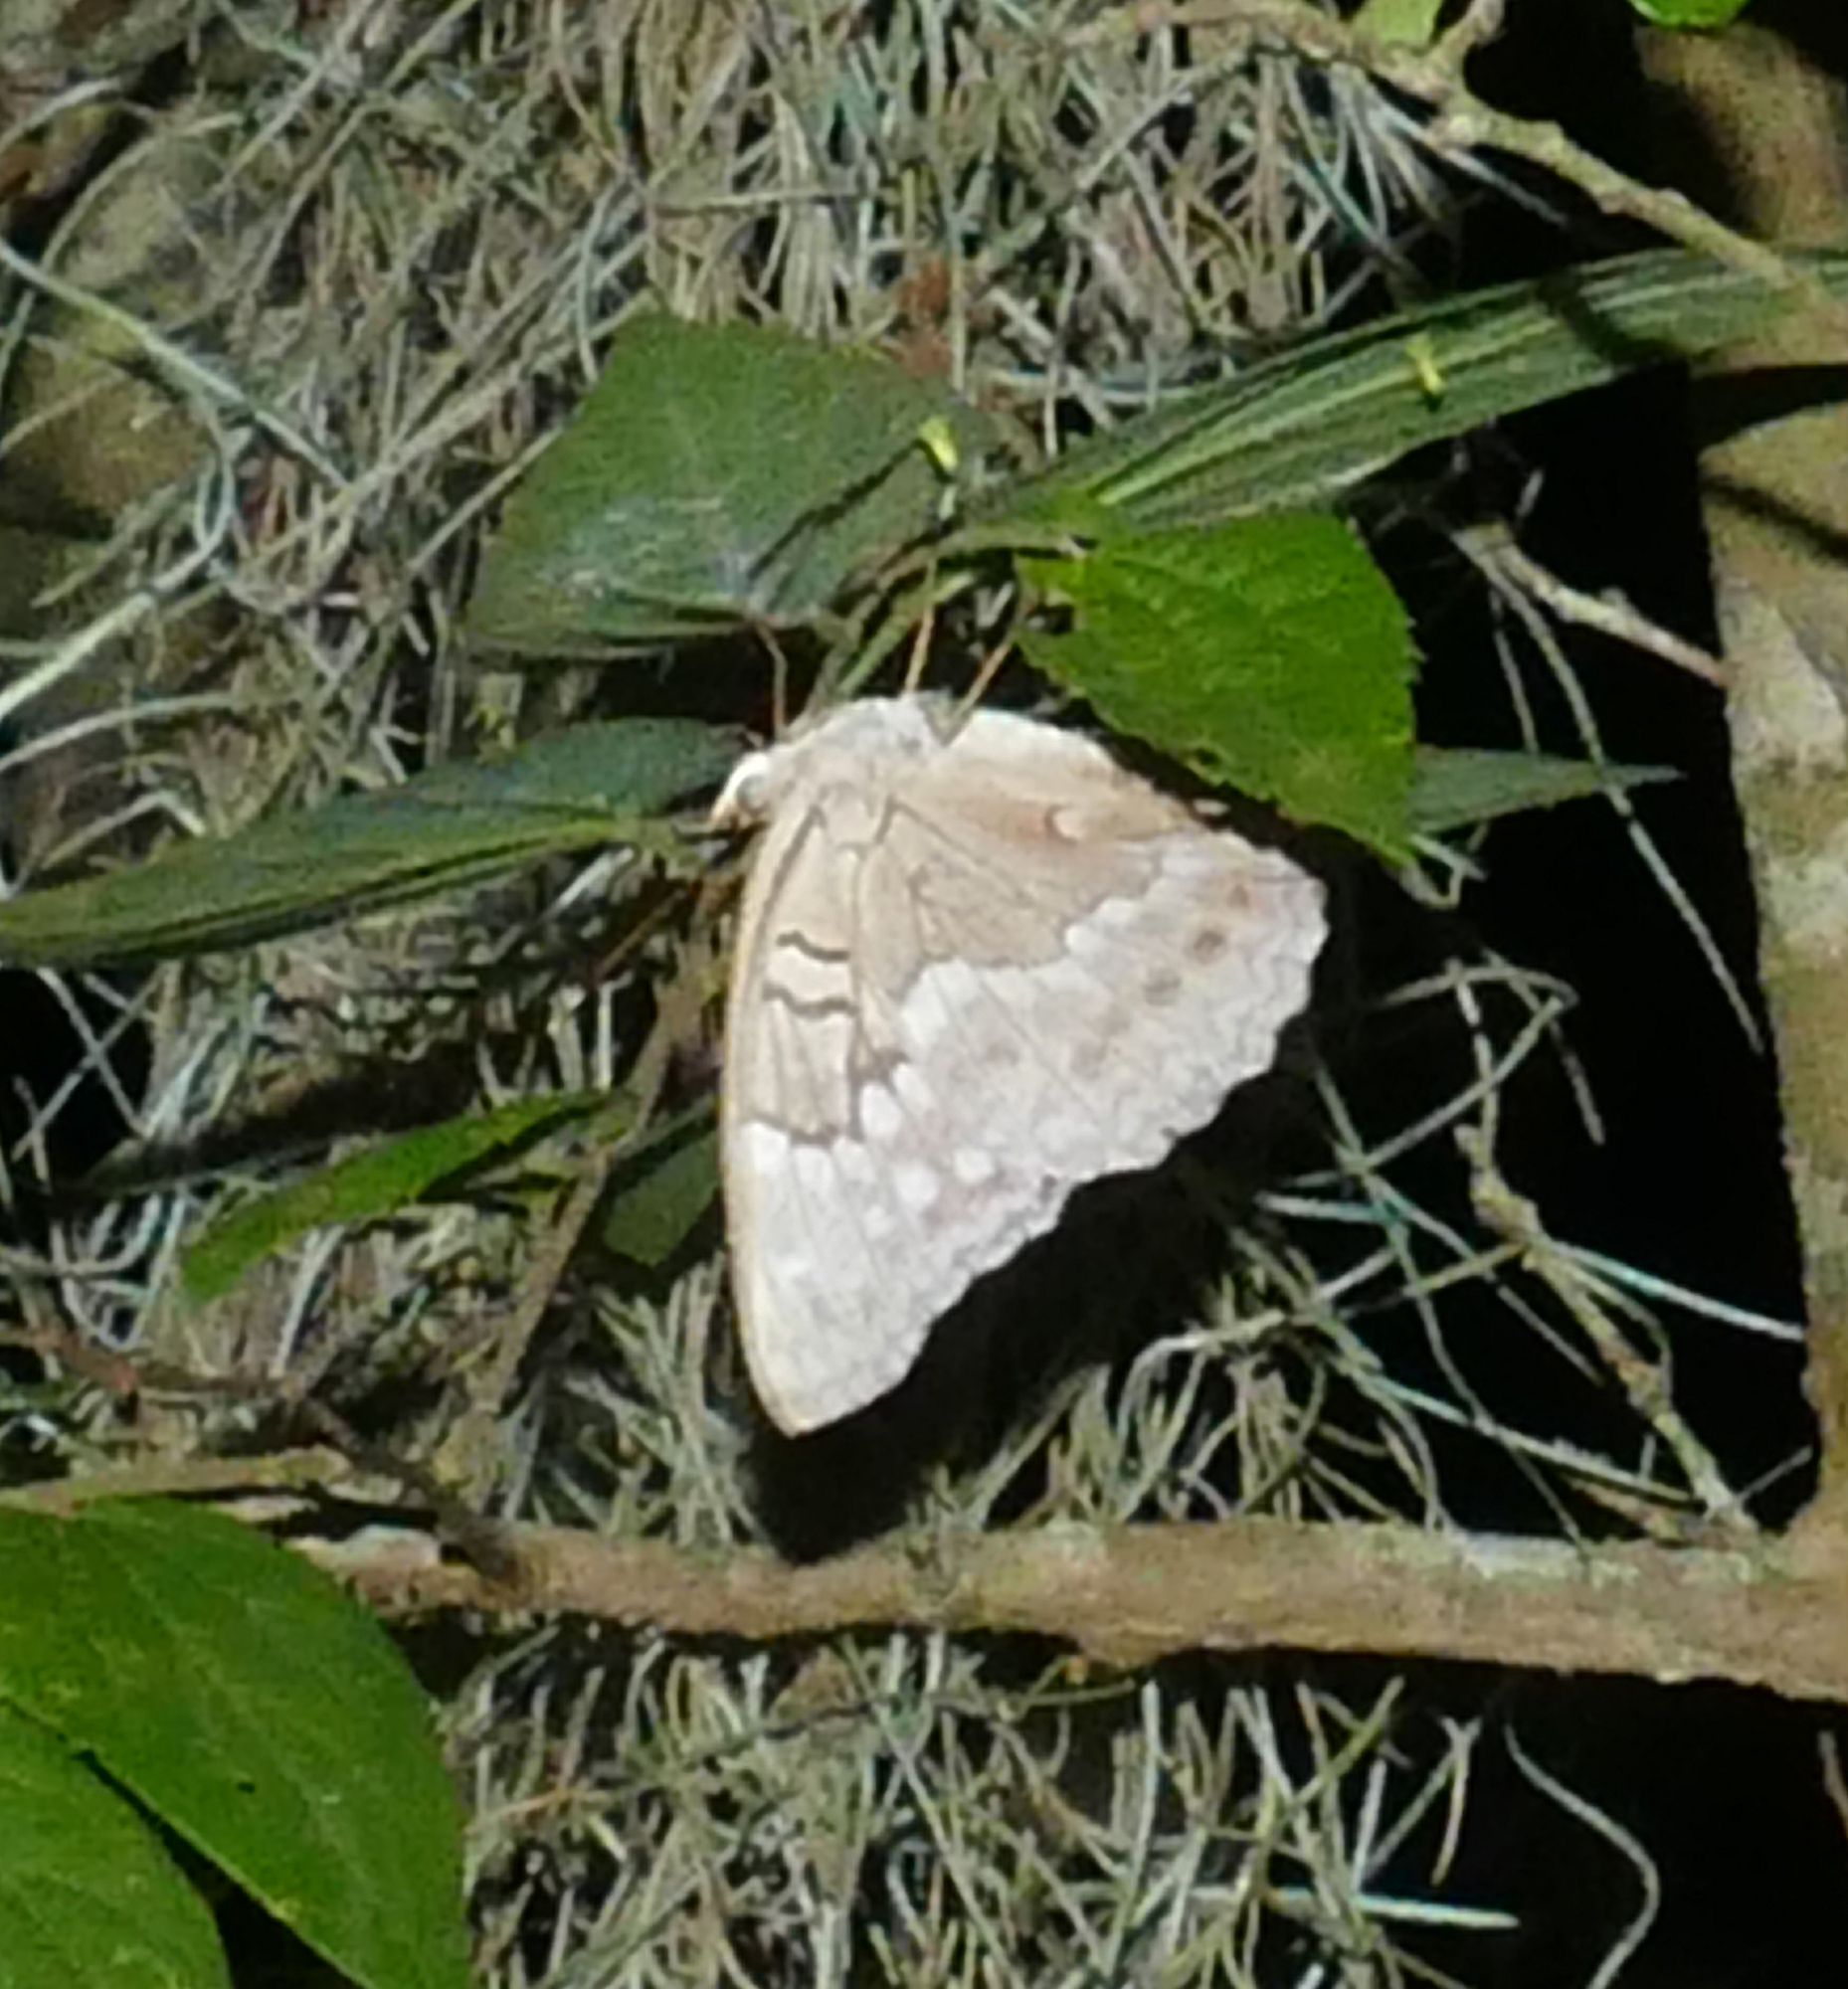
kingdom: Animalia
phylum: Arthropoda
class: Insecta
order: Lepidoptera
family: Nymphalidae
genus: Asterocampa
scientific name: Asterocampa clyton
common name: Tawny emperor
